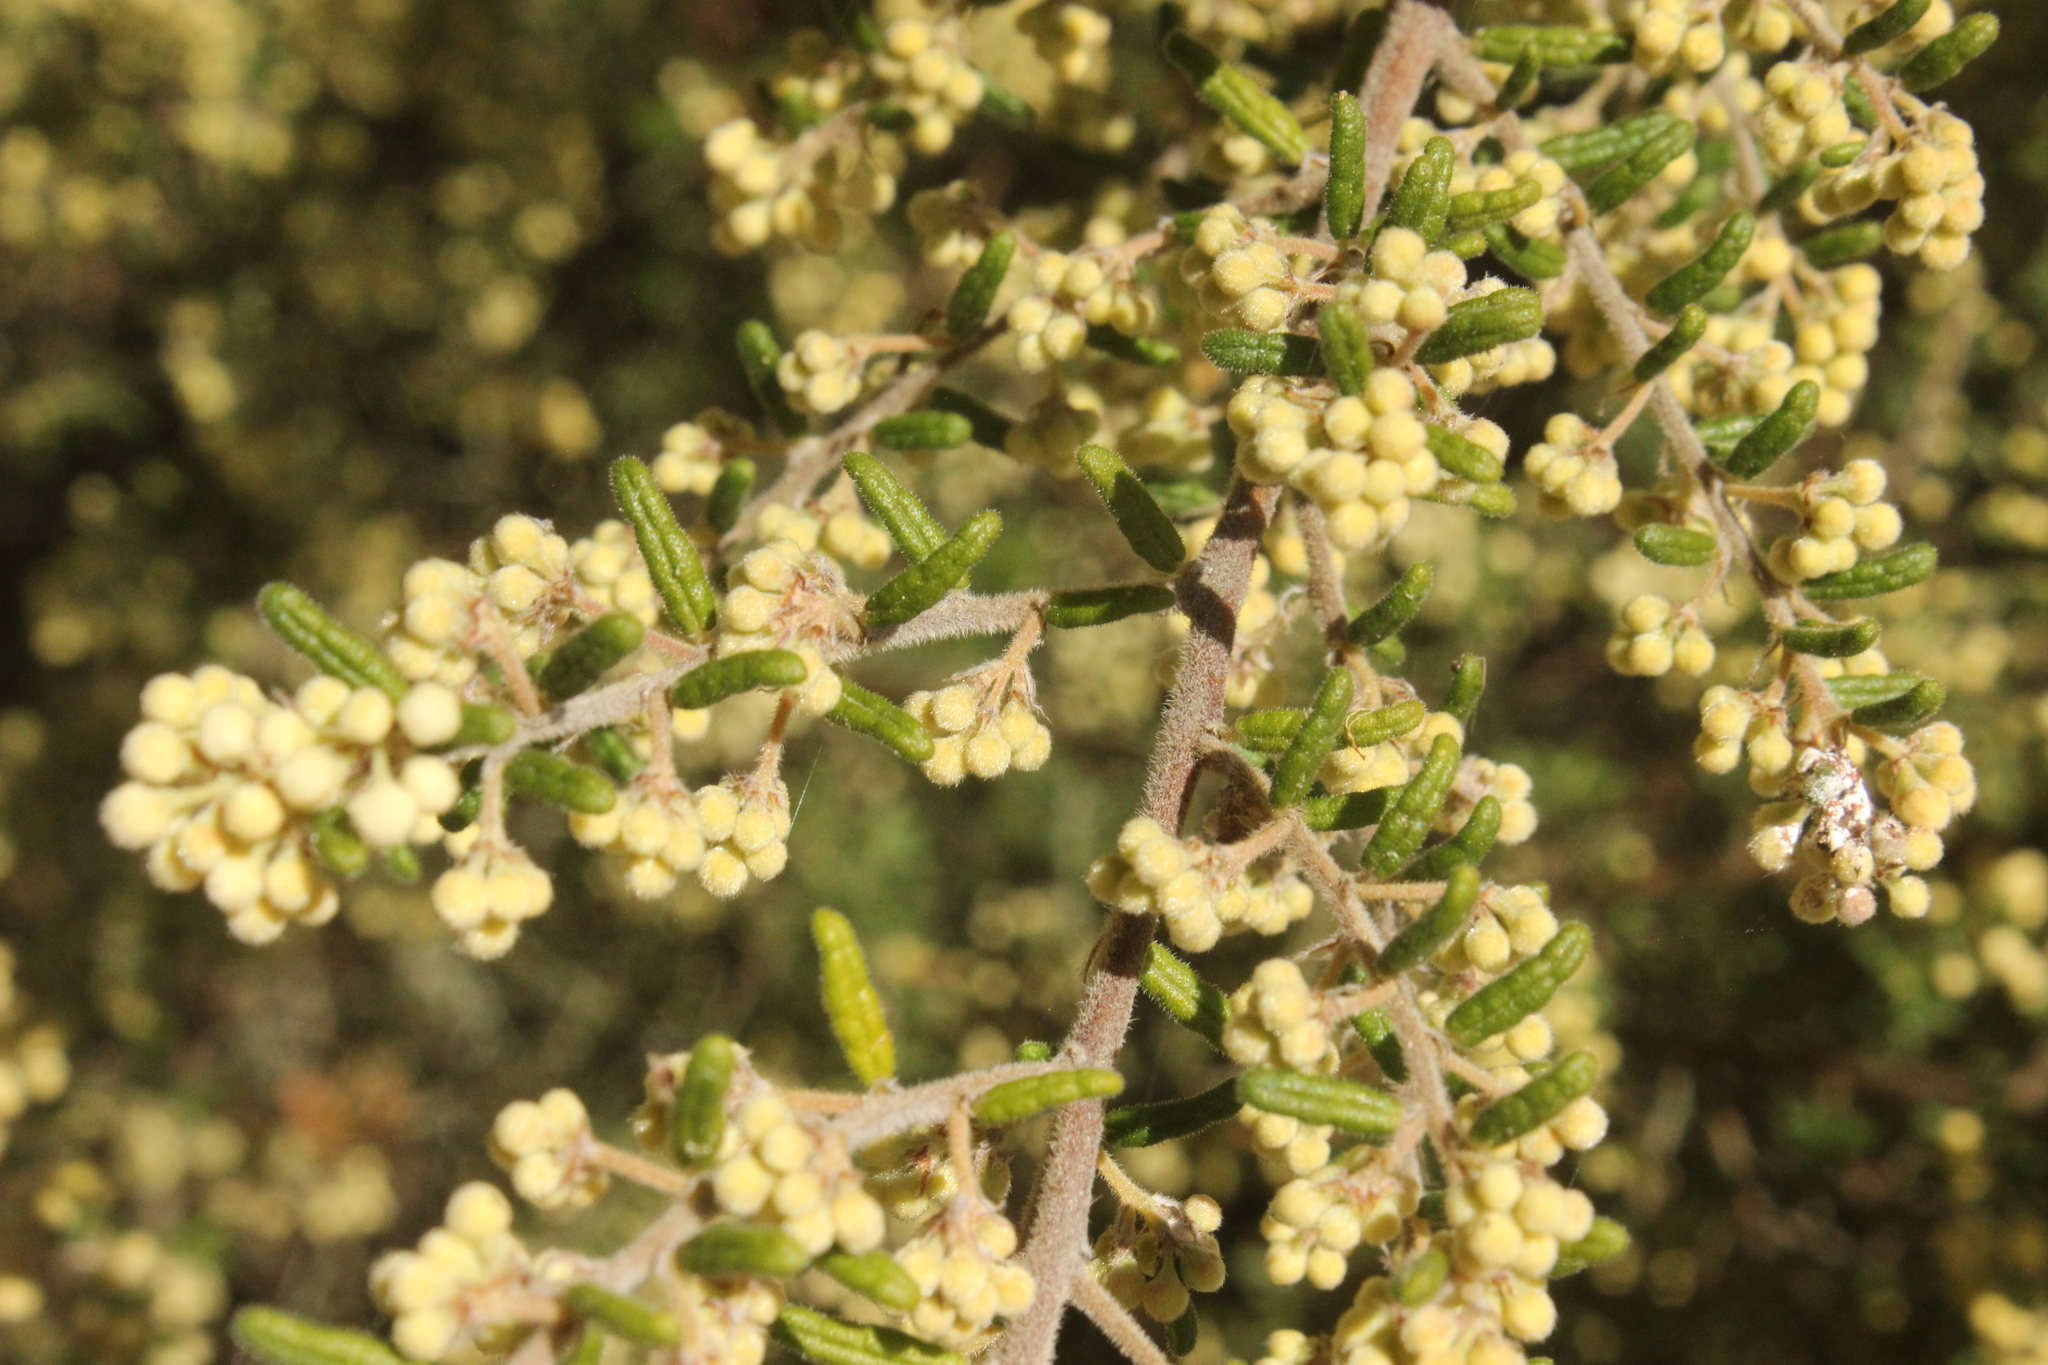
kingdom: Plantae
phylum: Tracheophyta
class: Magnoliopsida
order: Rosales
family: Rhamnaceae
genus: Pomaderris
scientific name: Pomaderris amoena
